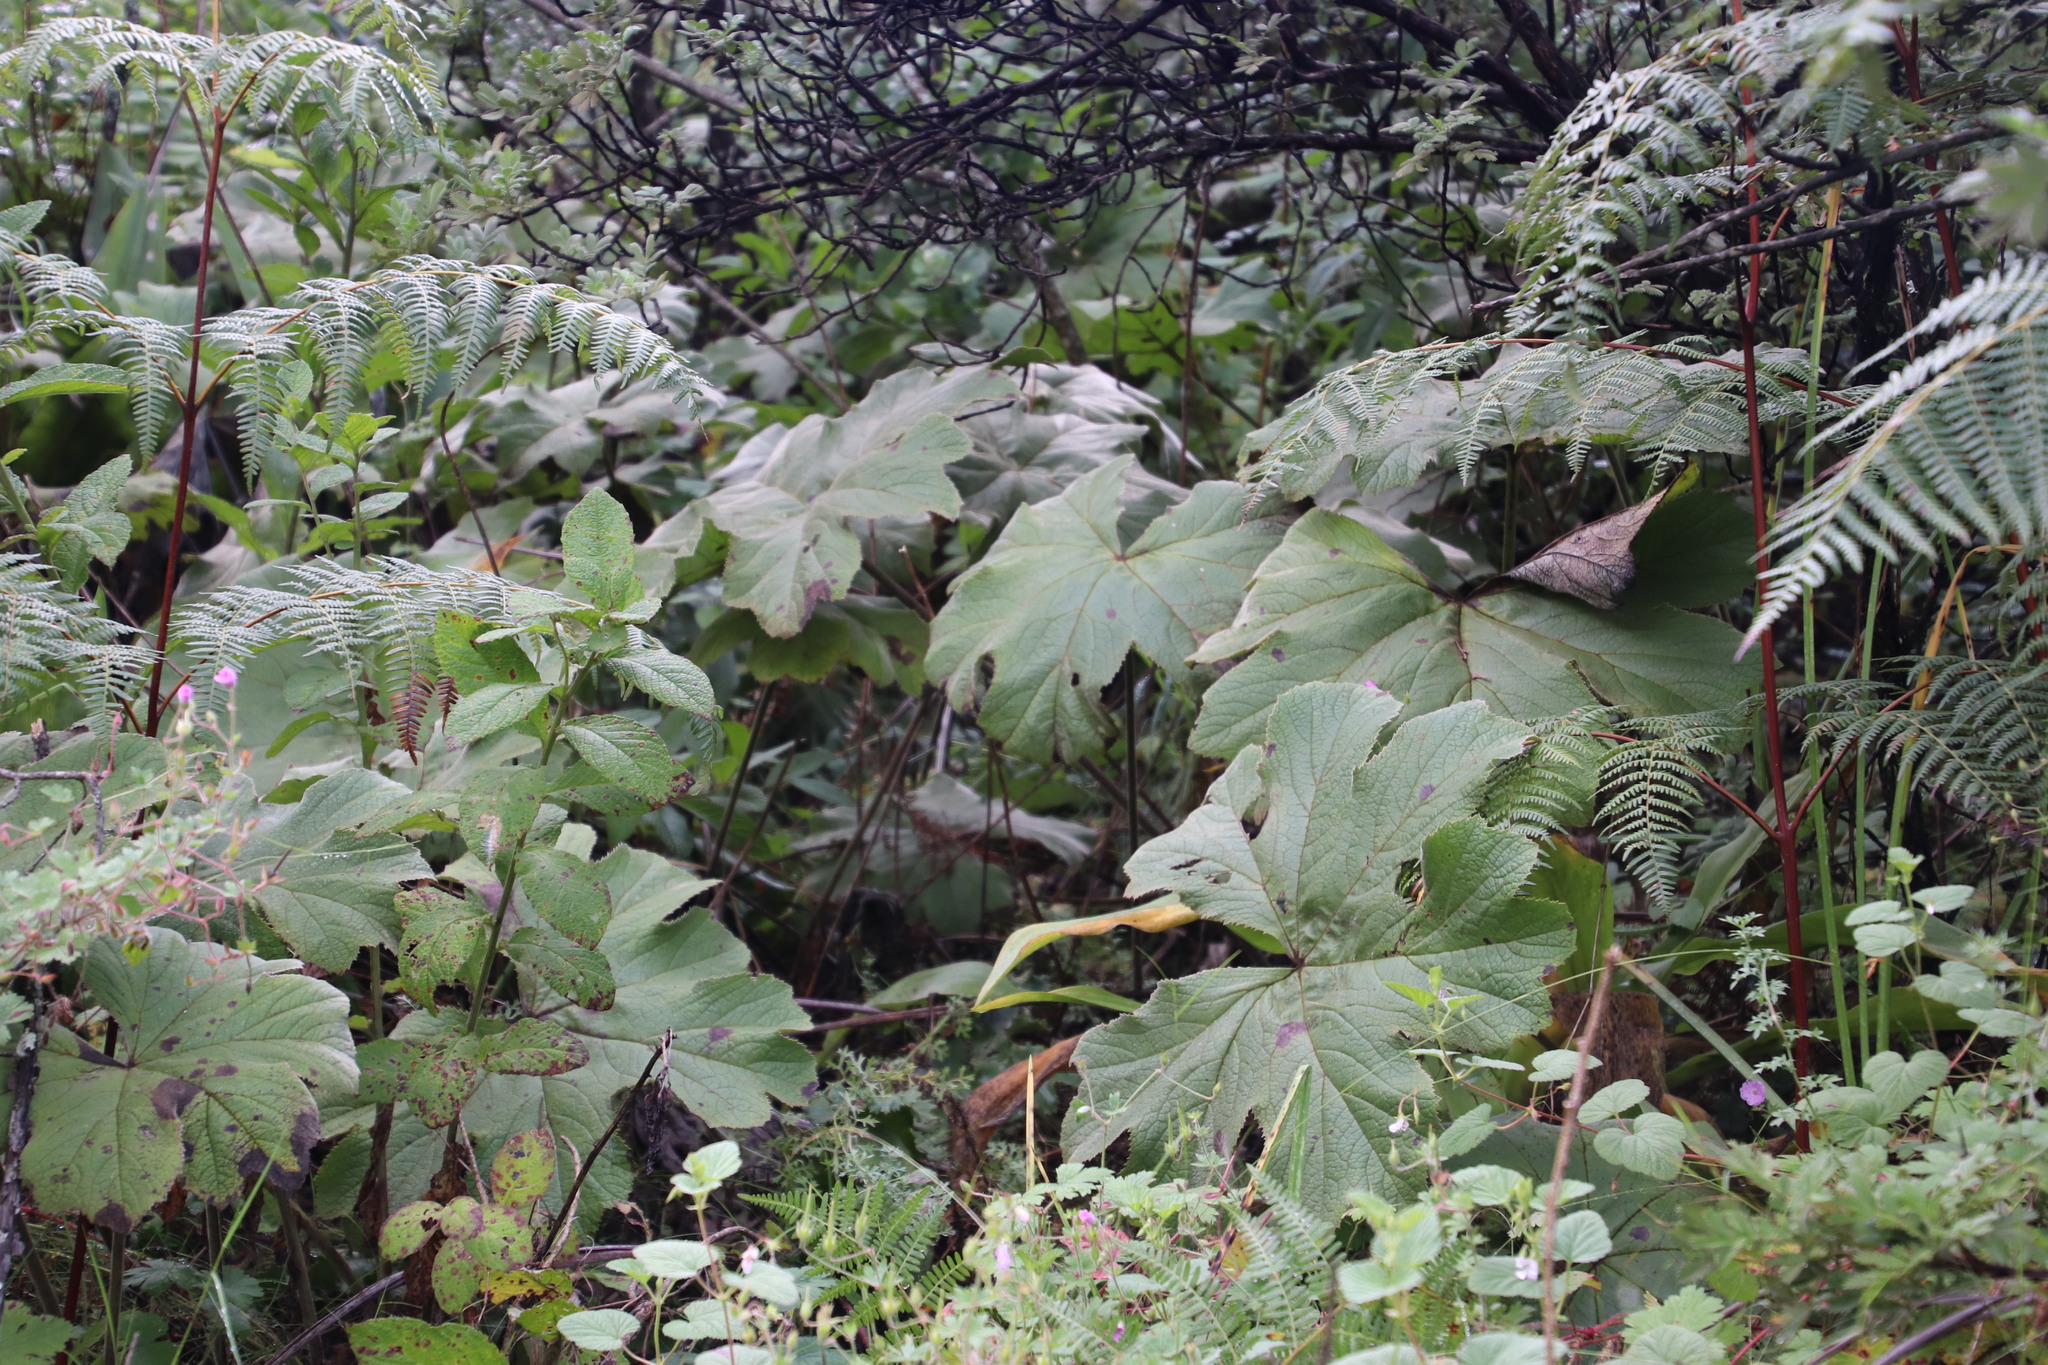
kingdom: Plantae
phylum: Tracheophyta
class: Liliopsida
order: Dioscoreales
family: Dioscoreaceae
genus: Dioscorea
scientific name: Dioscorea sylvatica
